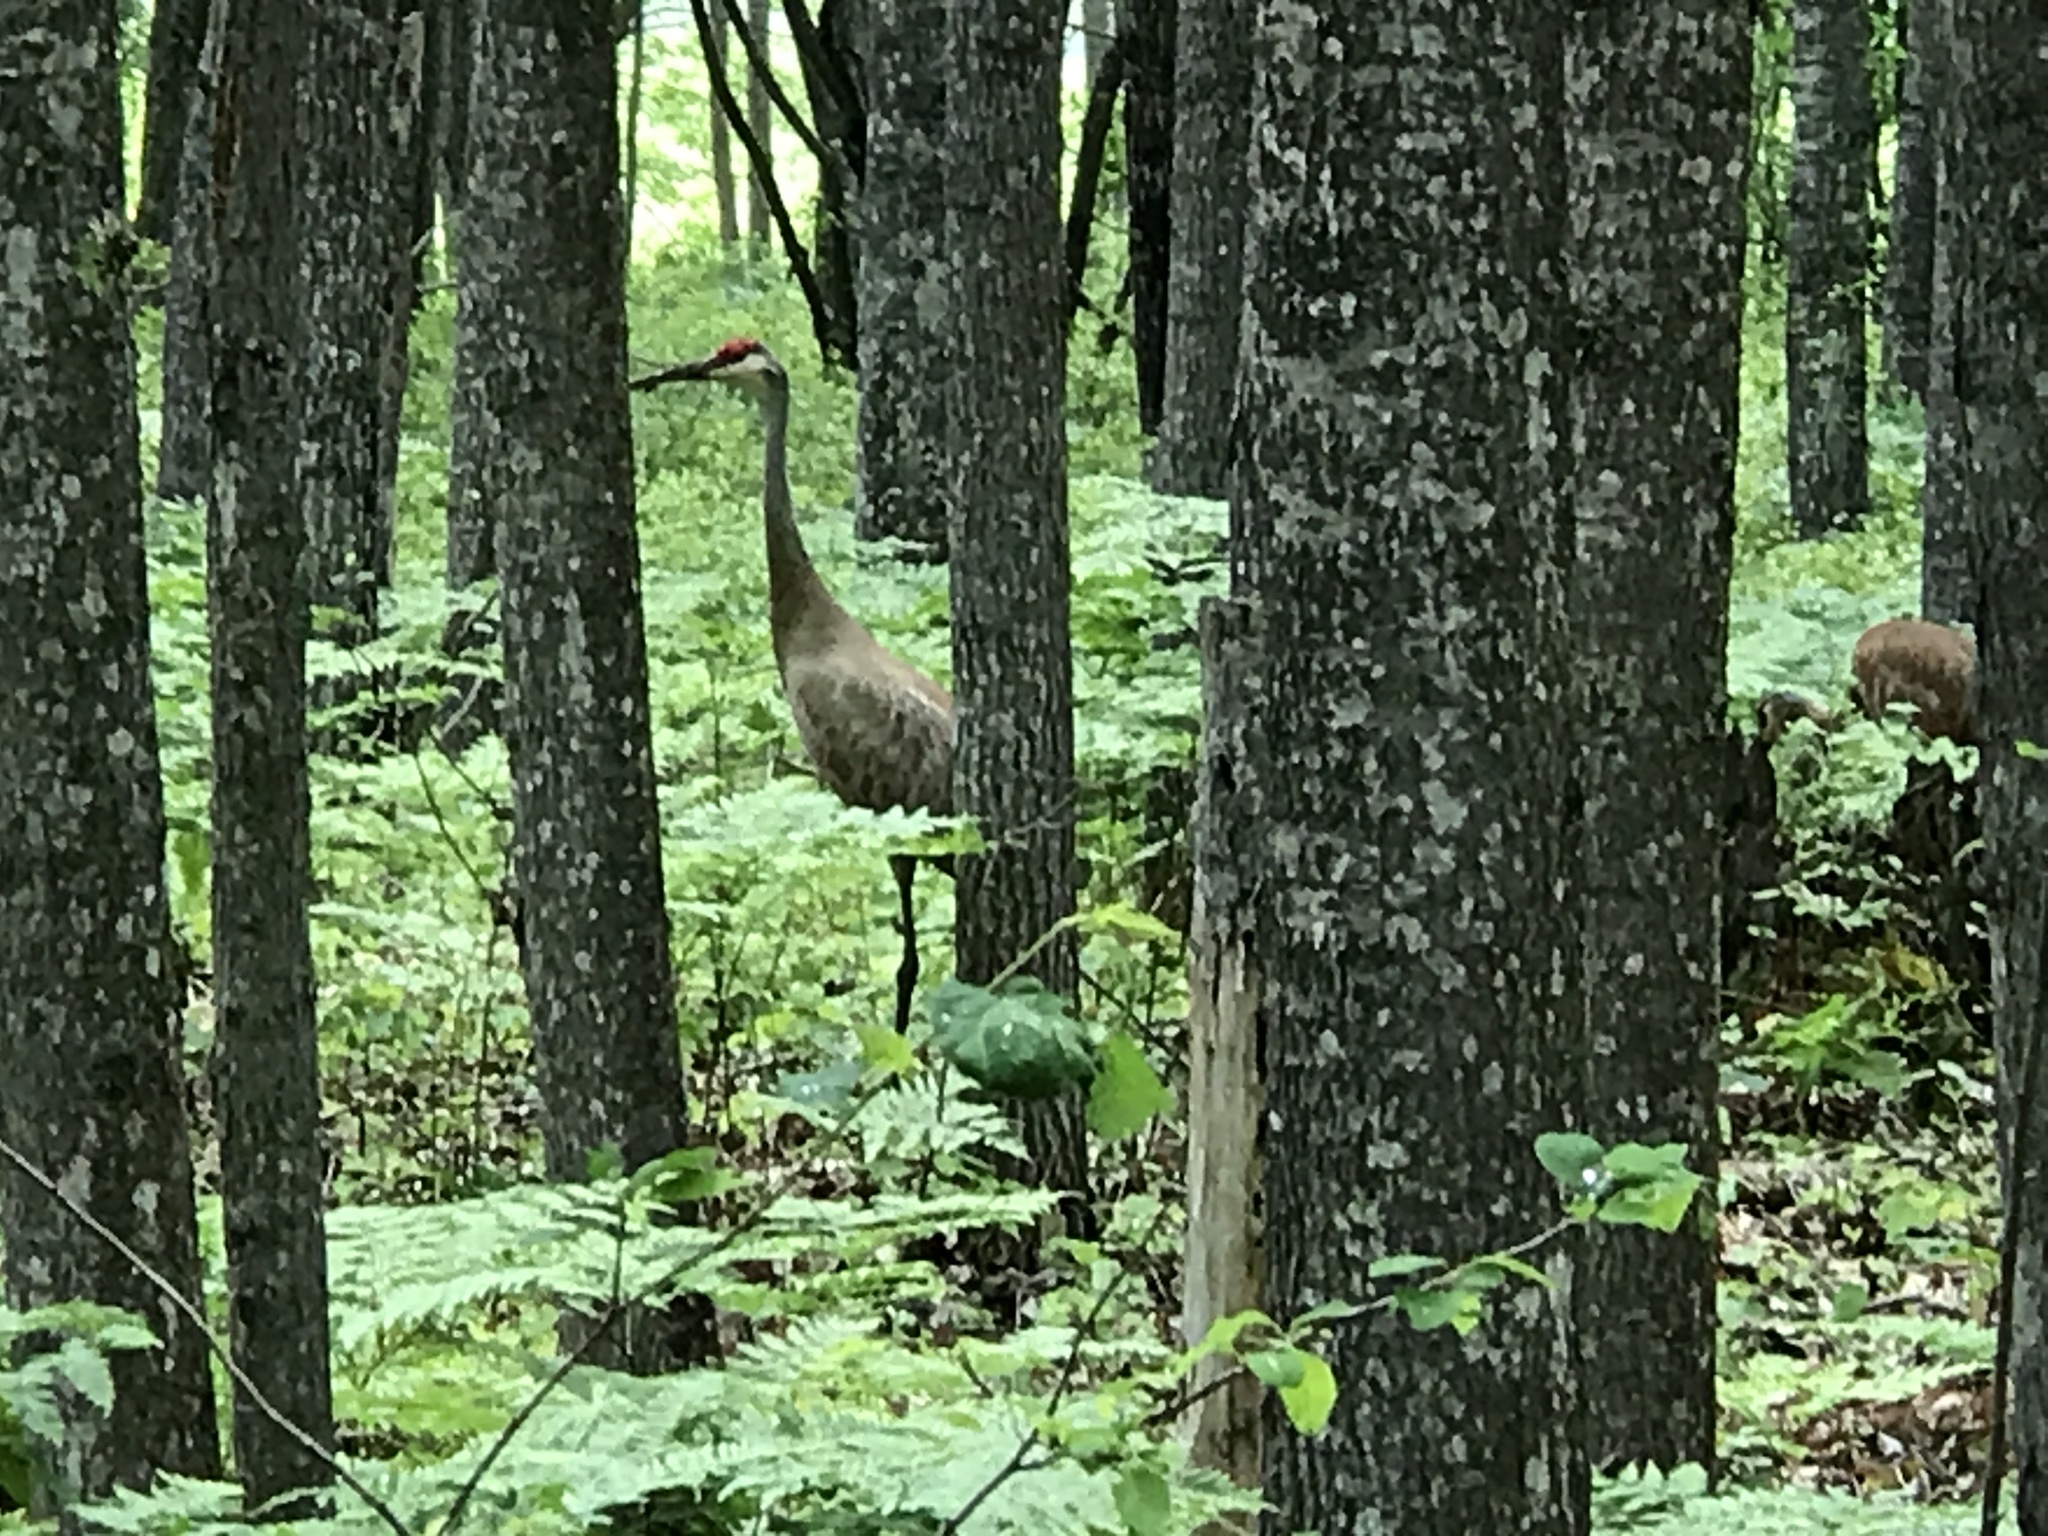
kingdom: Animalia
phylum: Chordata
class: Aves
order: Gruiformes
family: Gruidae
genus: Grus
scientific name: Grus canadensis
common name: Sandhill crane
